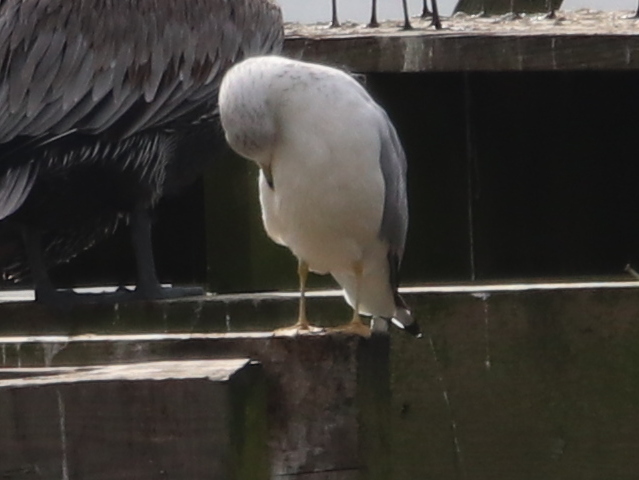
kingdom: Animalia
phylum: Chordata
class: Aves
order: Charadriiformes
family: Laridae
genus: Larus
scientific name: Larus delawarensis
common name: Ring-billed gull
